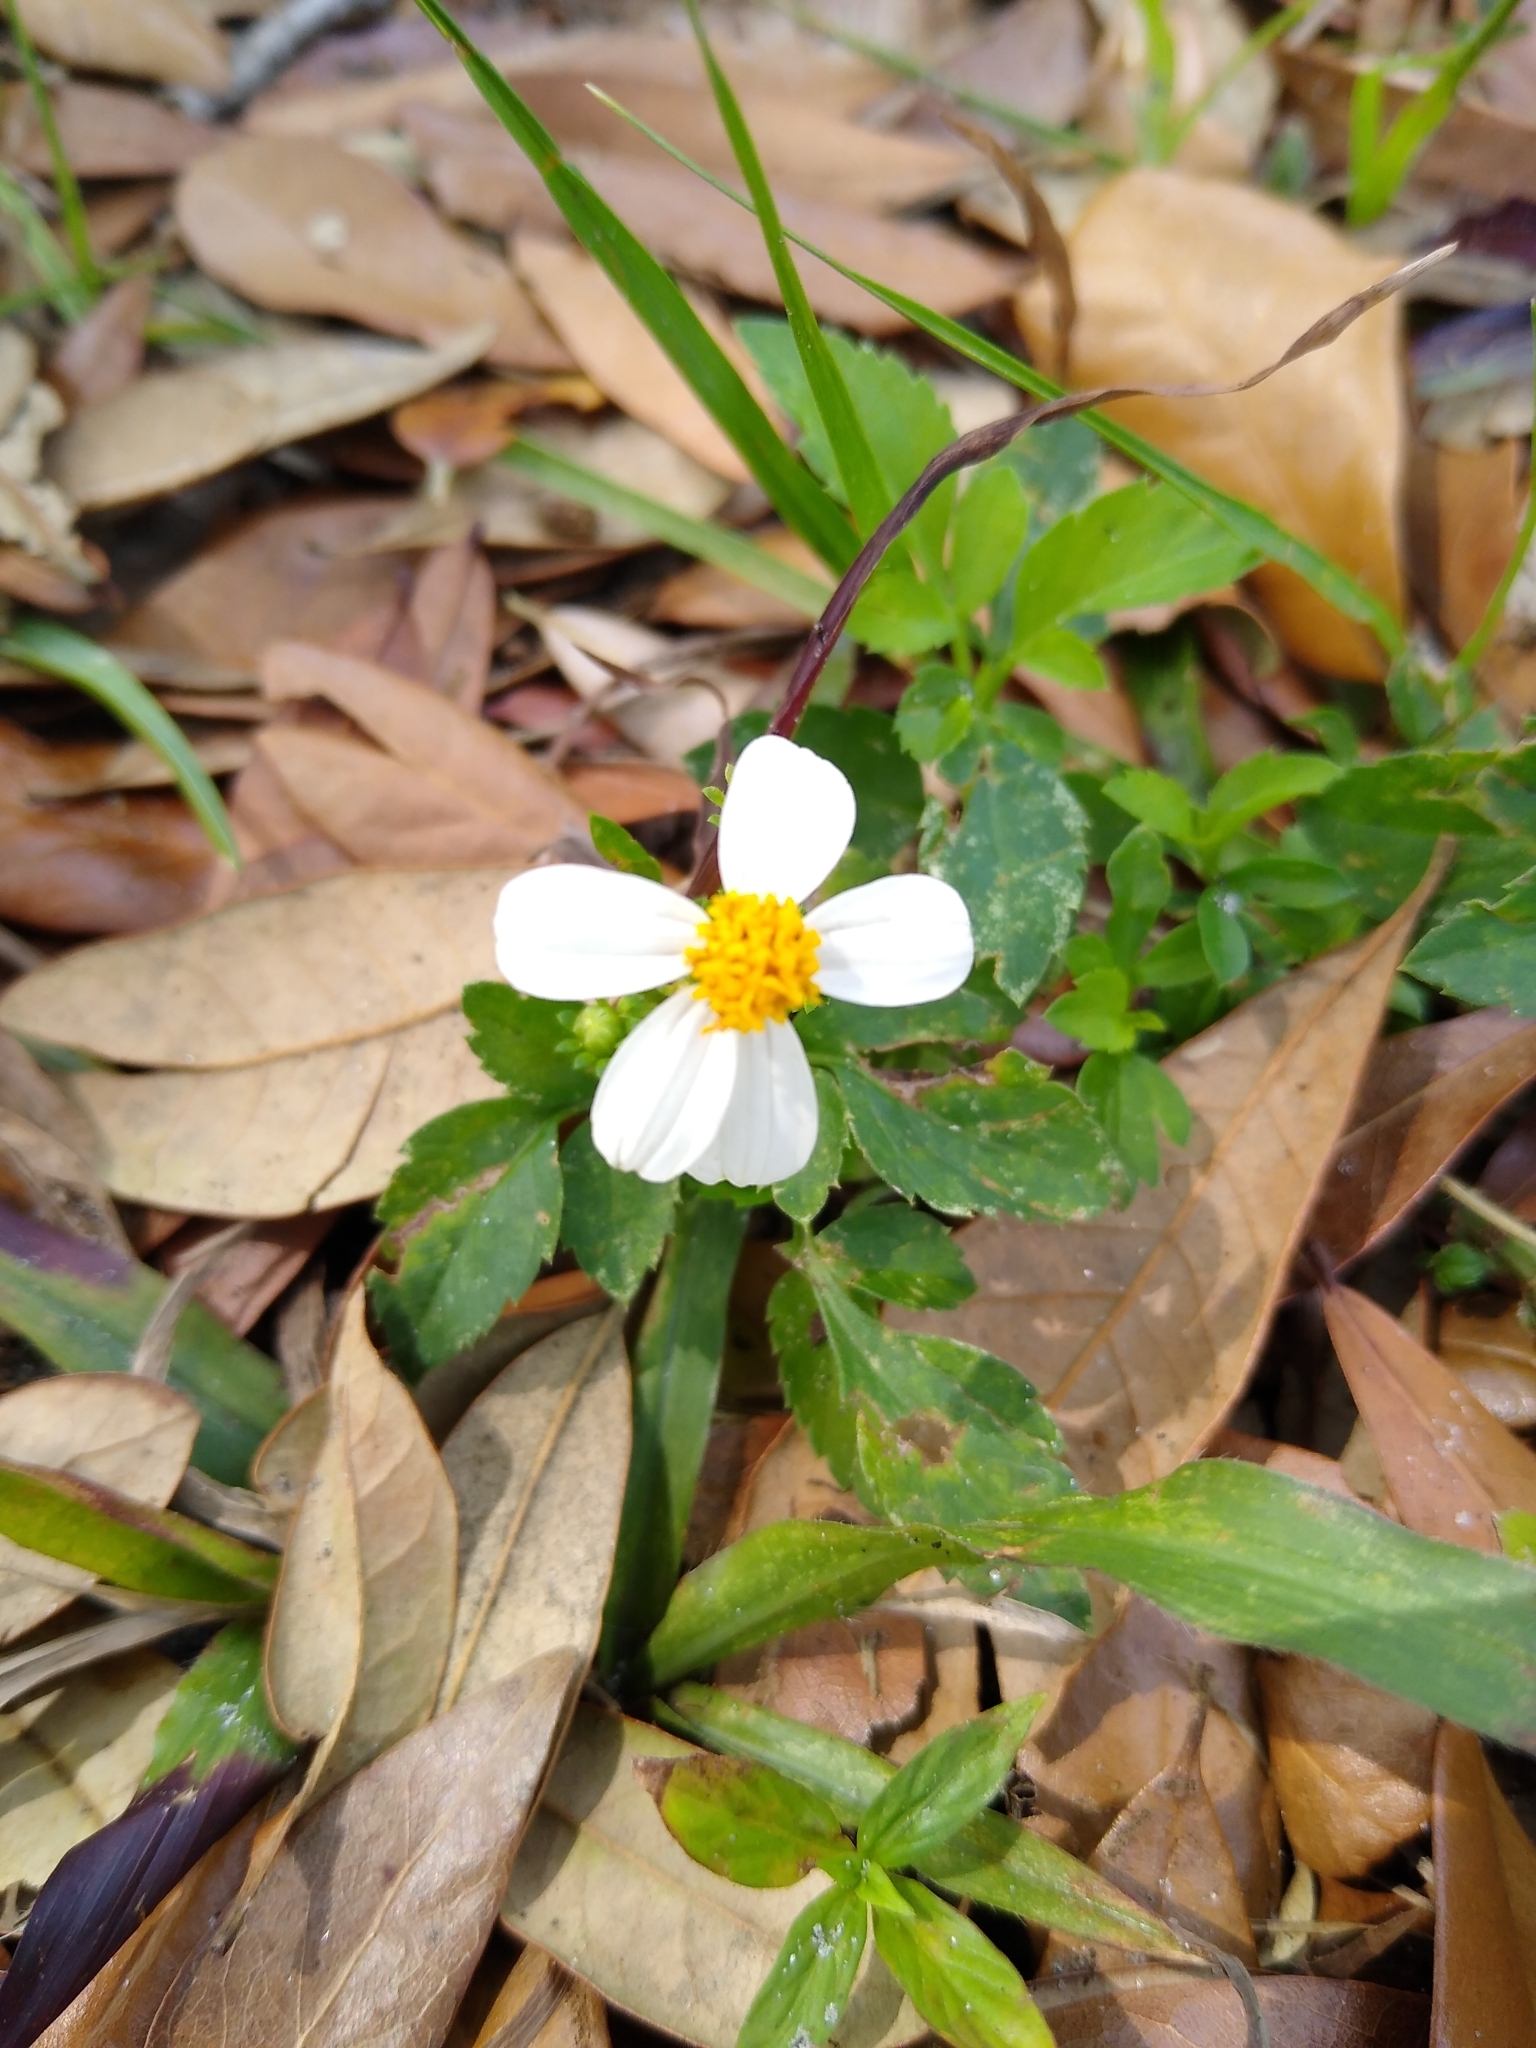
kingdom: Plantae
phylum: Tracheophyta
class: Magnoliopsida
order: Asterales
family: Asteraceae
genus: Bidens
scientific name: Bidens alba
